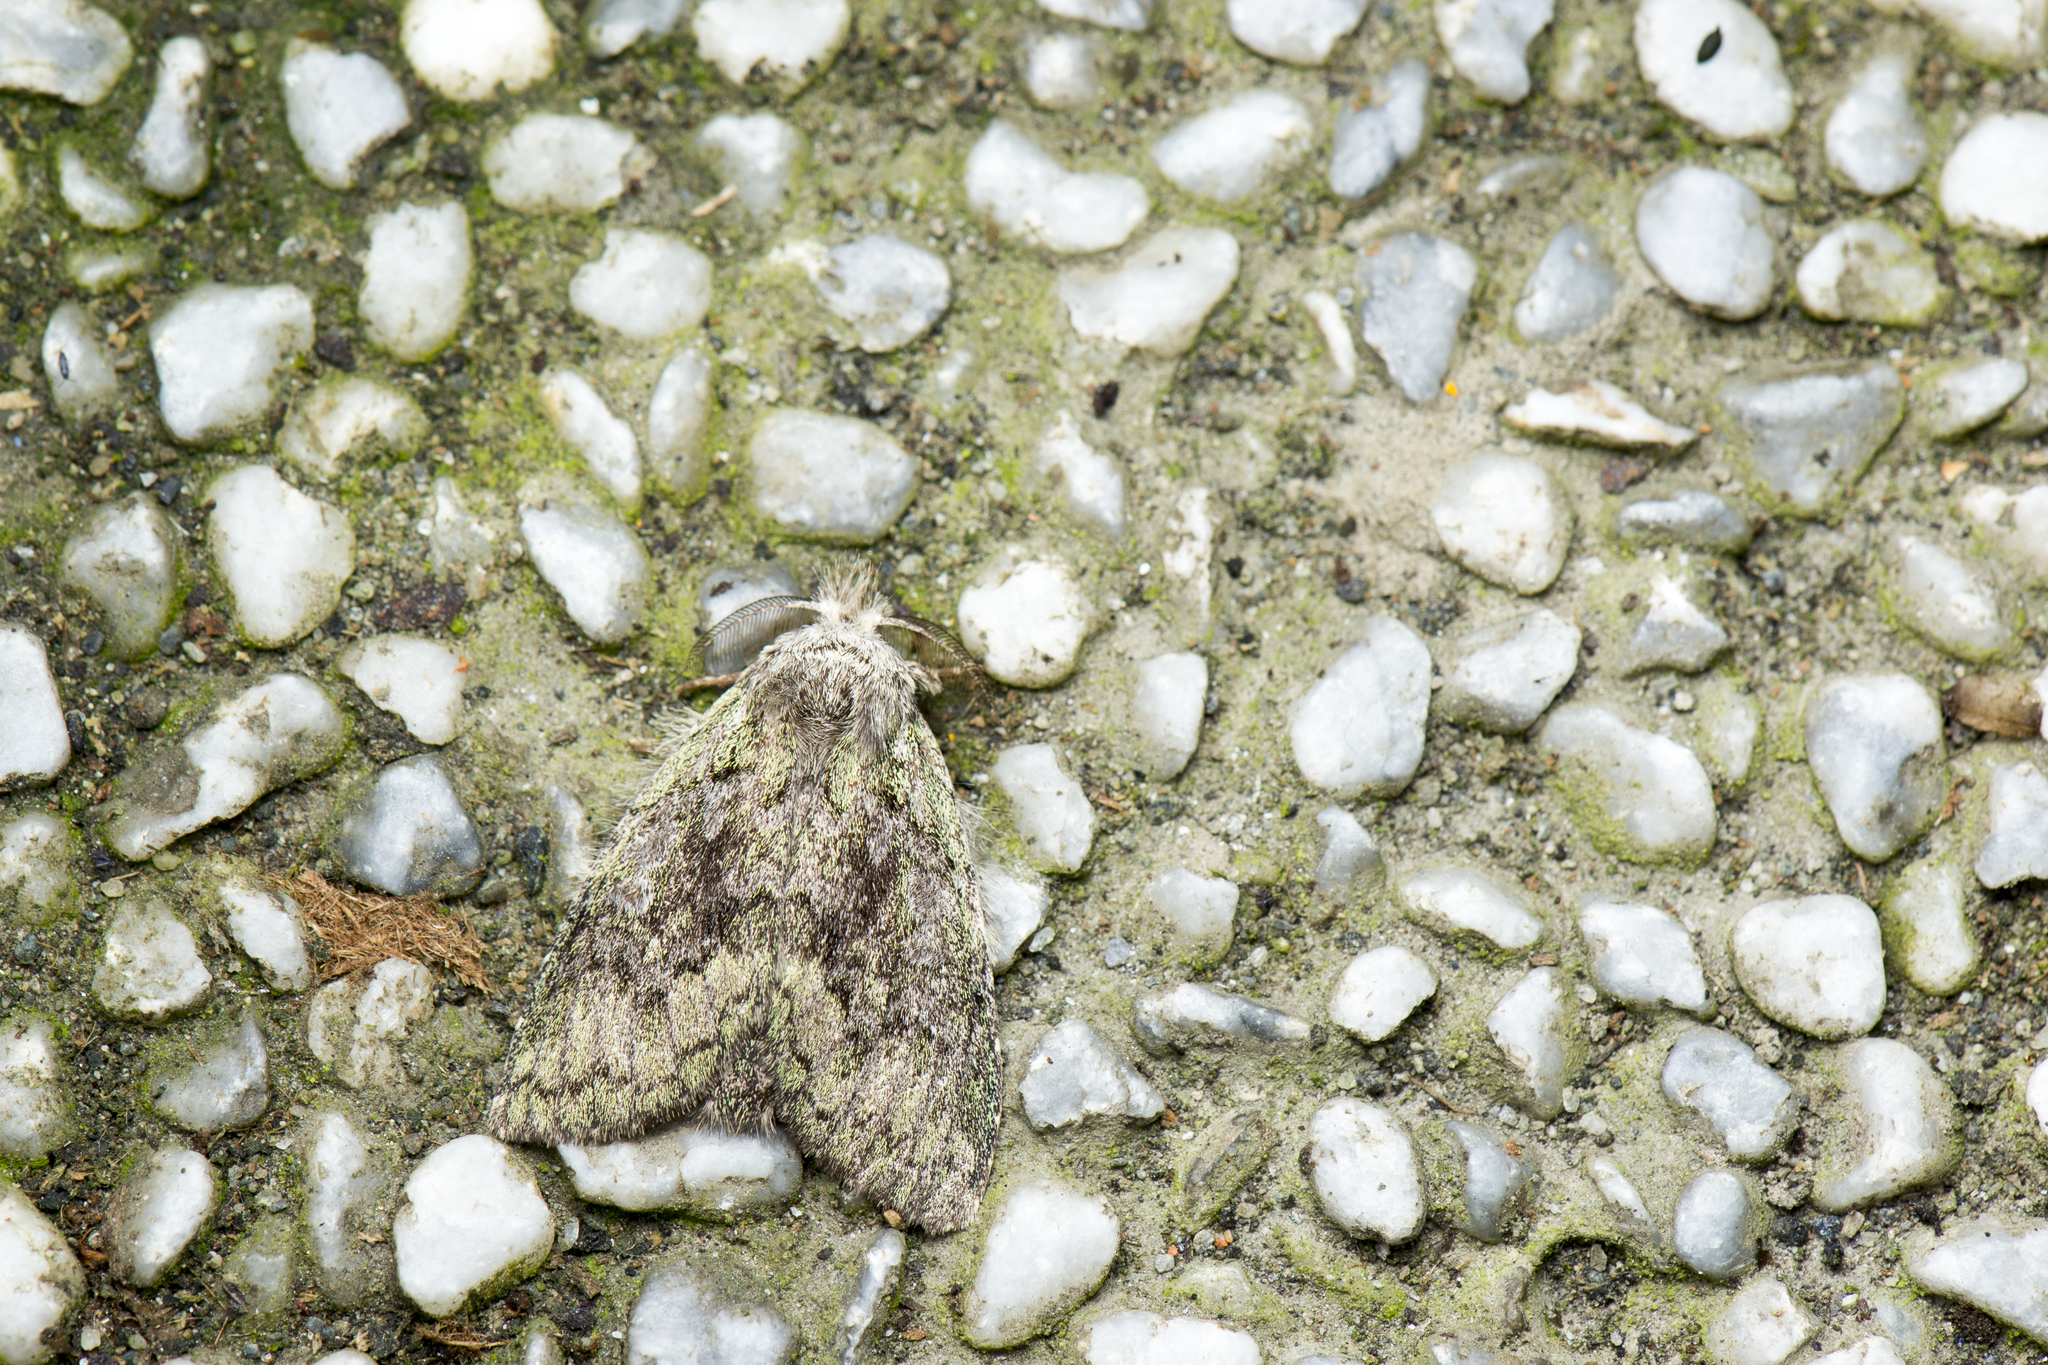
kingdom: Animalia
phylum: Arthropoda
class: Insecta
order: Lepidoptera
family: Notodontidae
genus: Syntypistis
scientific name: Syntypistis umbrosa
